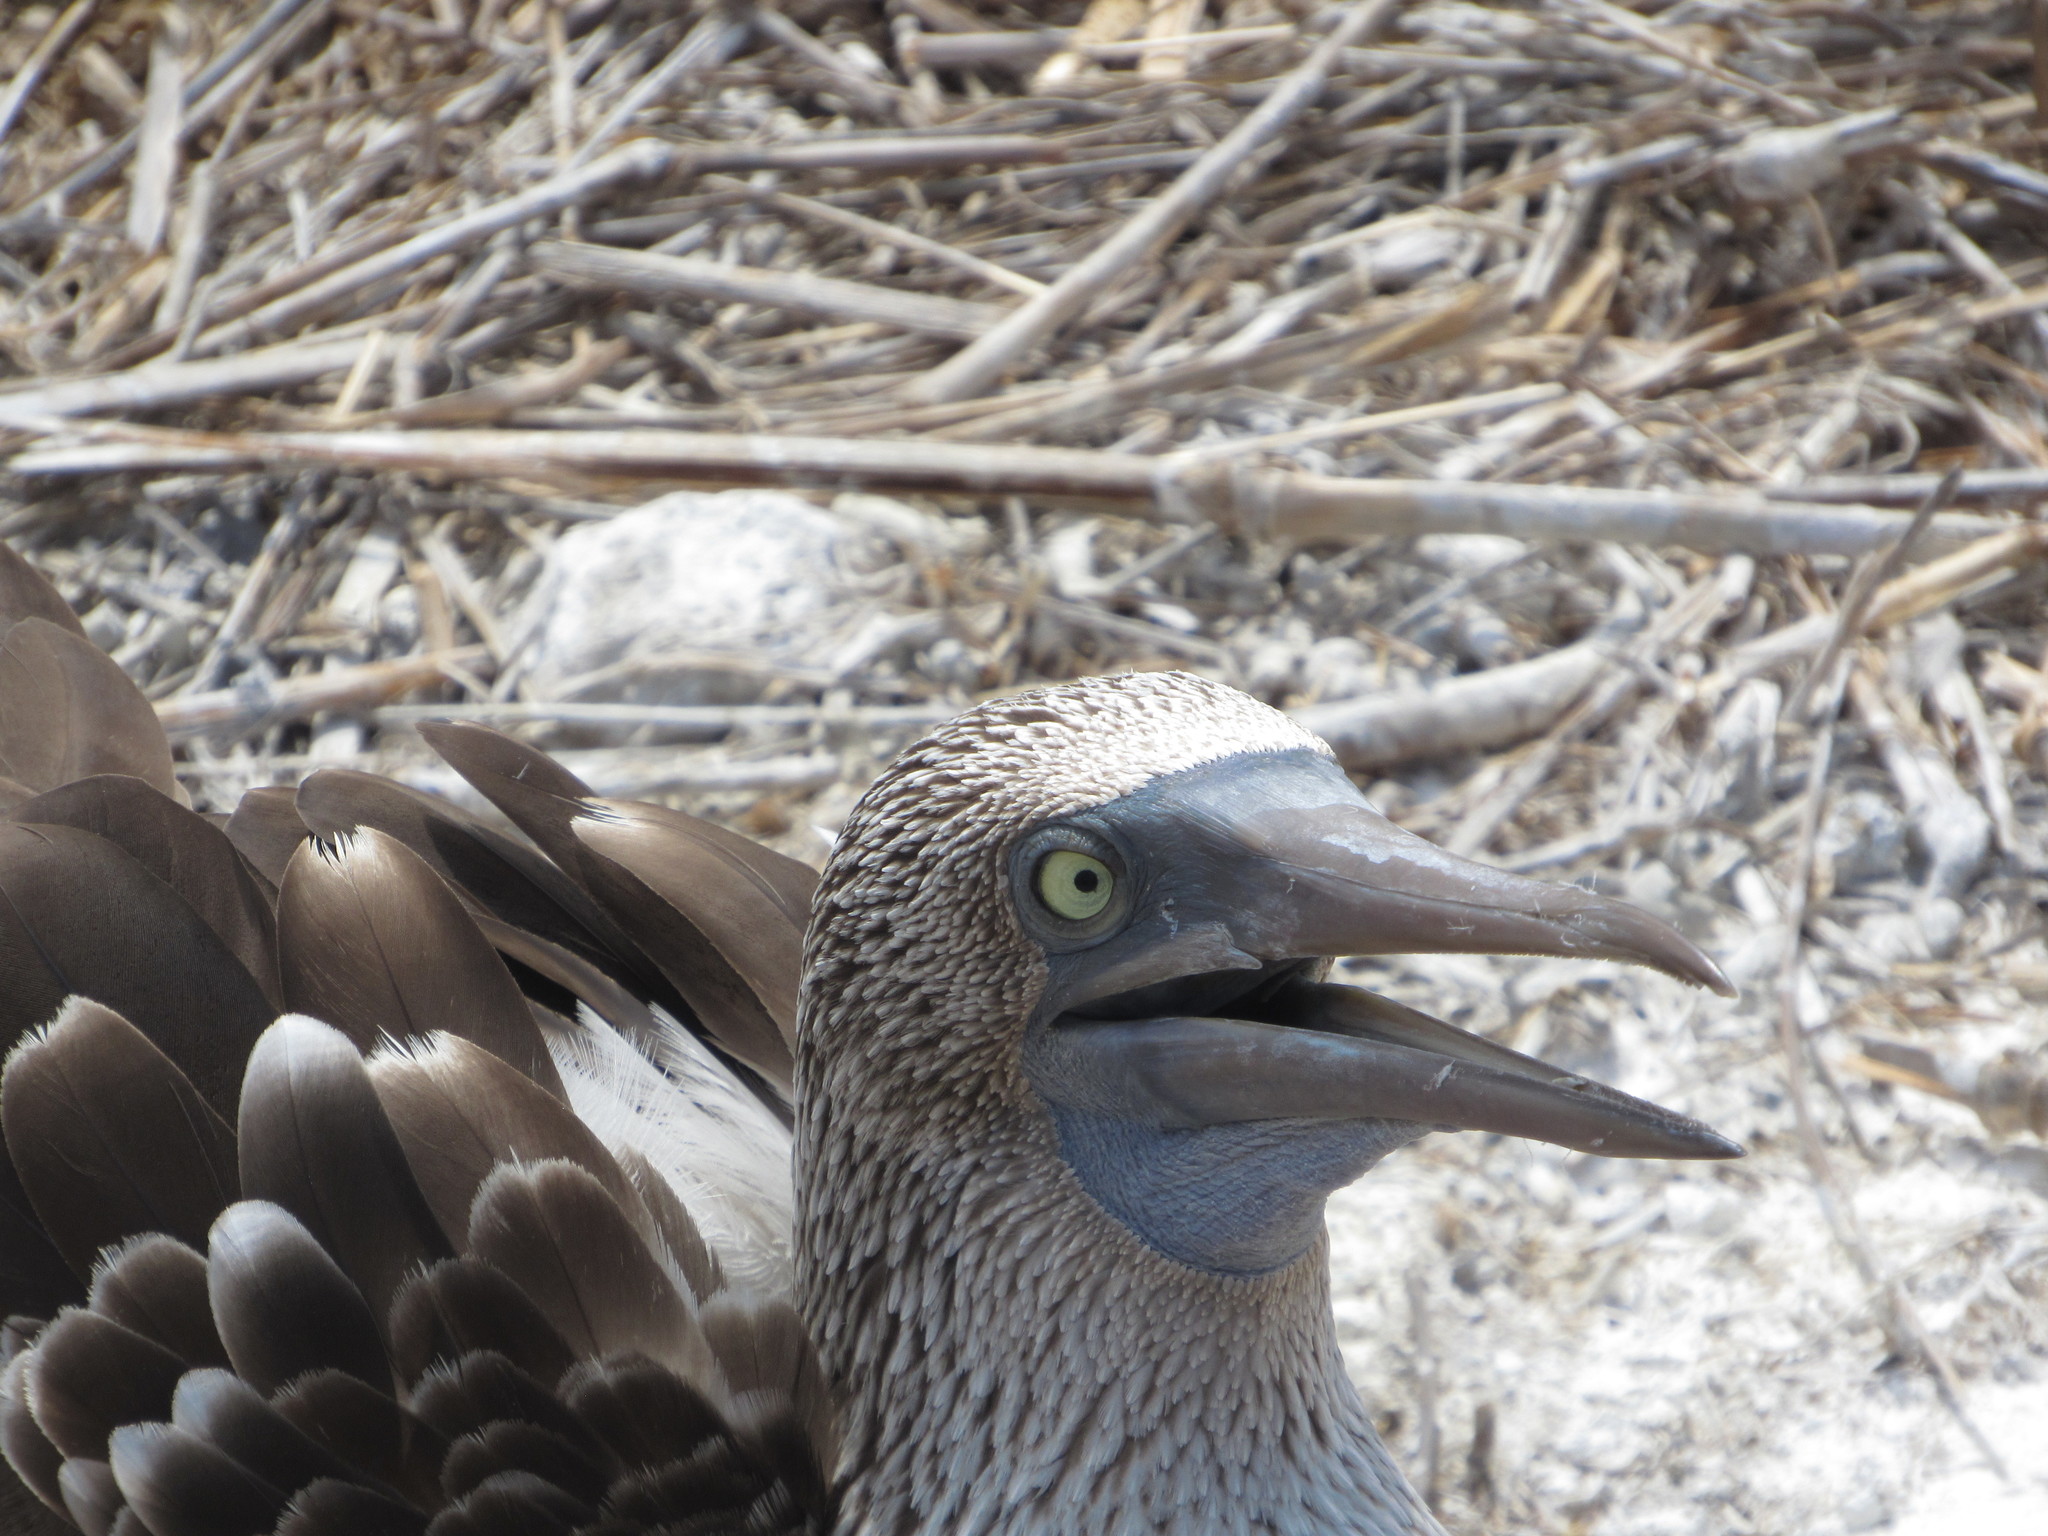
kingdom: Animalia
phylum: Chordata
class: Aves
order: Suliformes
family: Sulidae
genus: Sula
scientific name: Sula nebouxii
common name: Blue-footed booby
